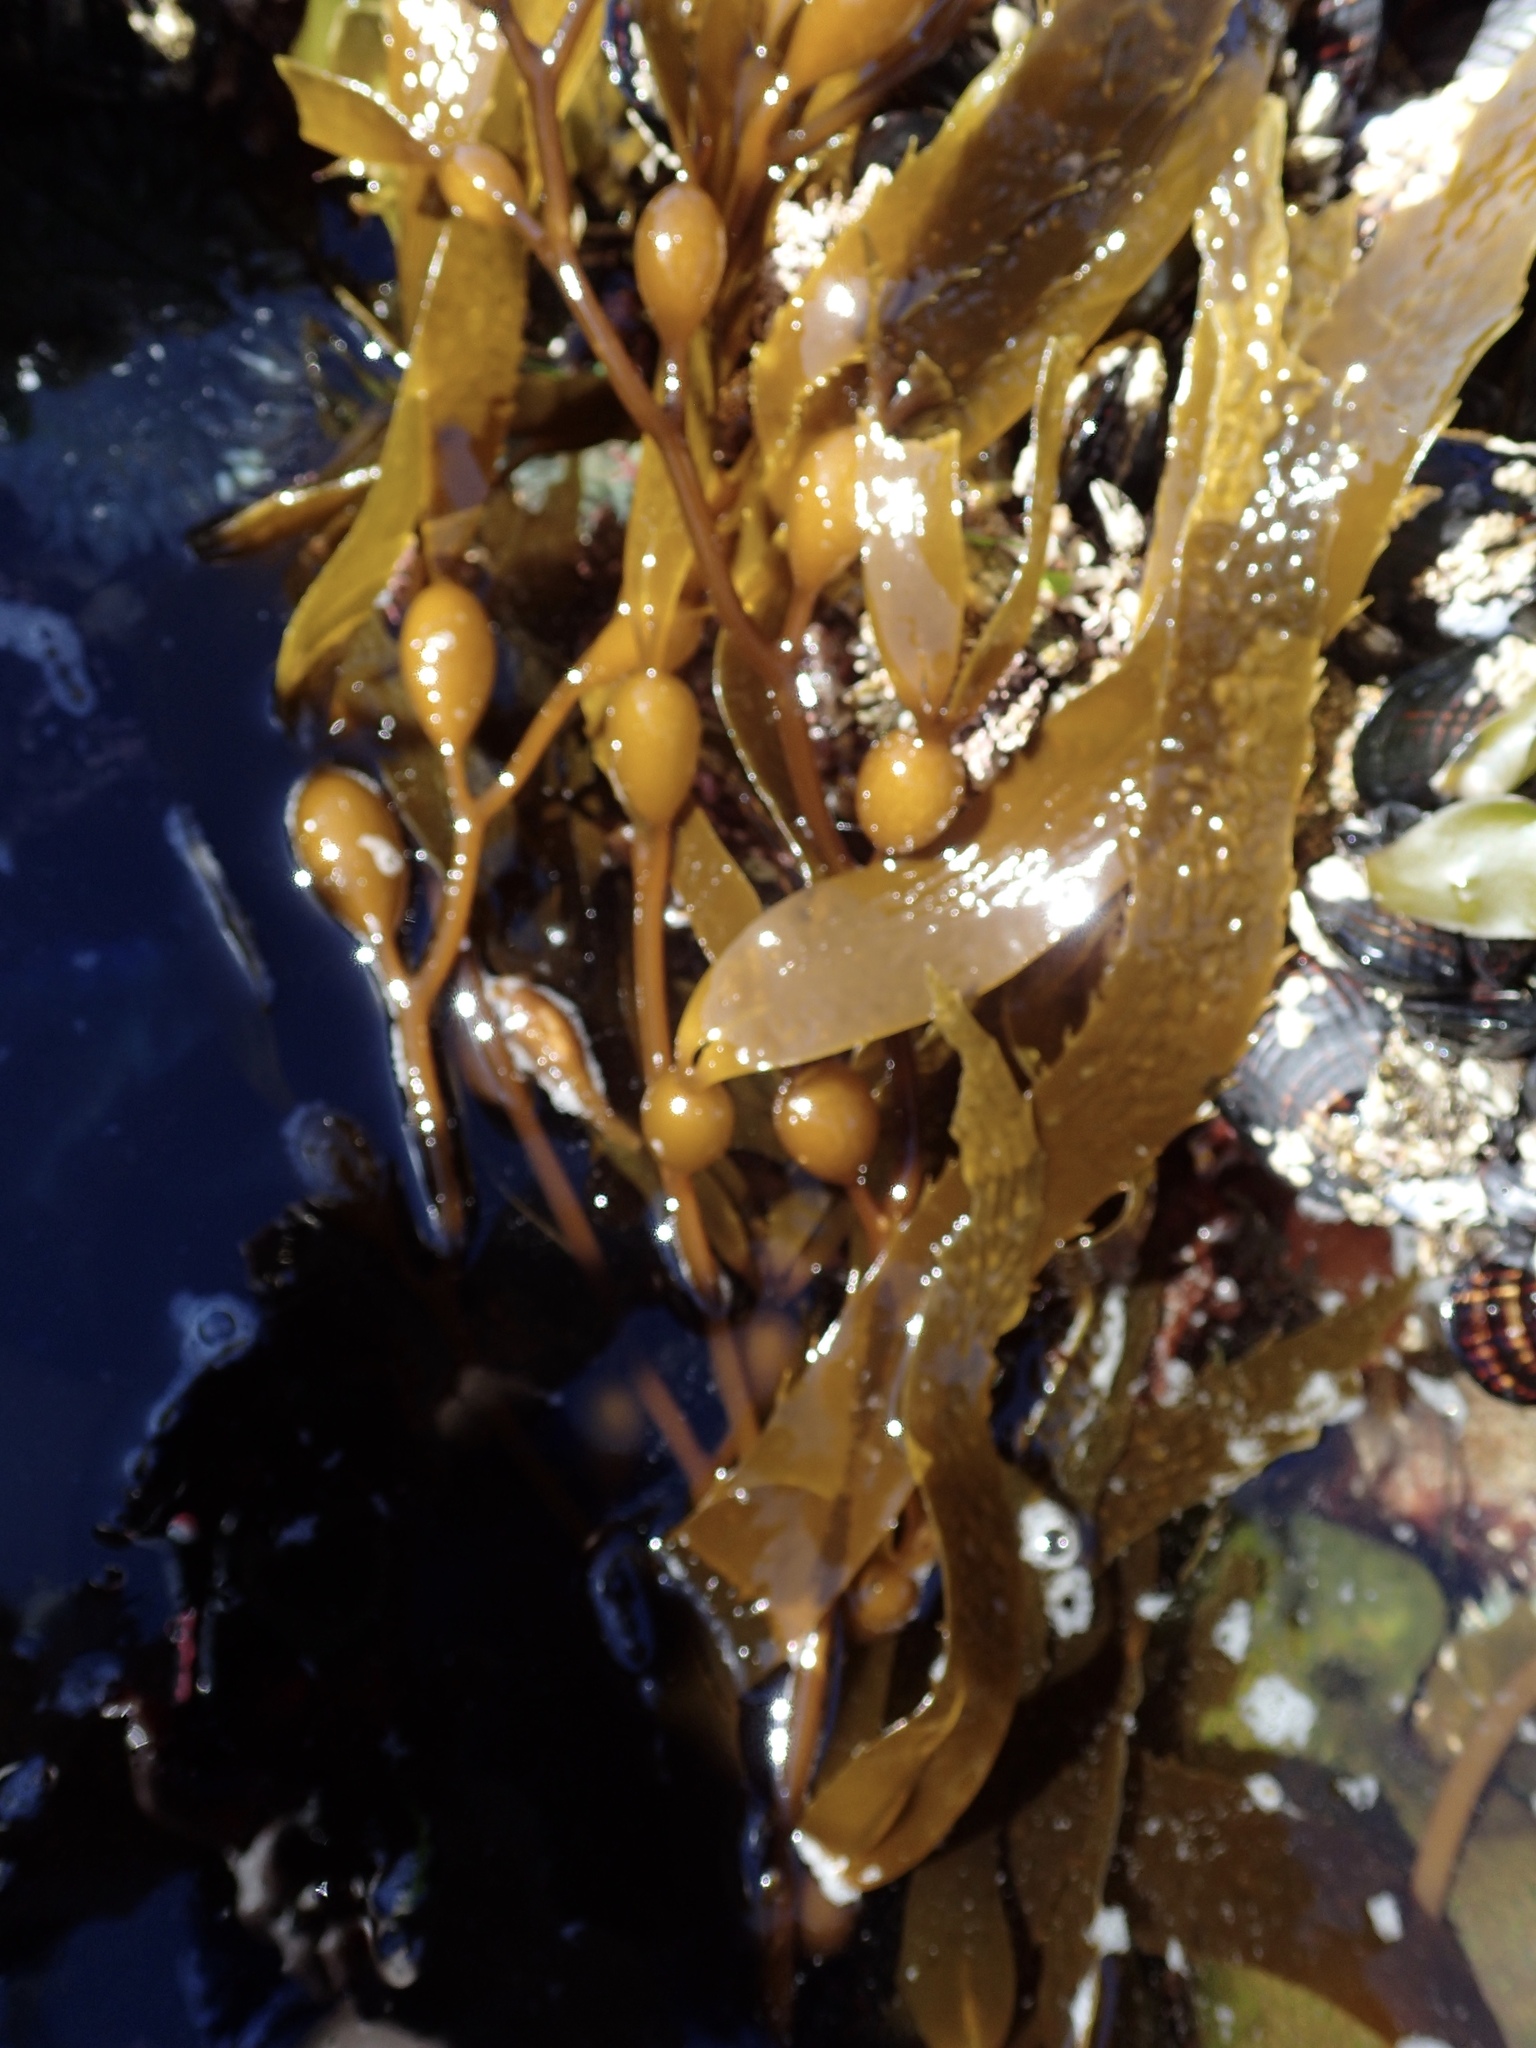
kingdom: Chromista
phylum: Ochrophyta
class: Phaeophyceae
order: Laminariales
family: Laminariaceae
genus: Macrocystis
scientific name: Macrocystis pyrifera
